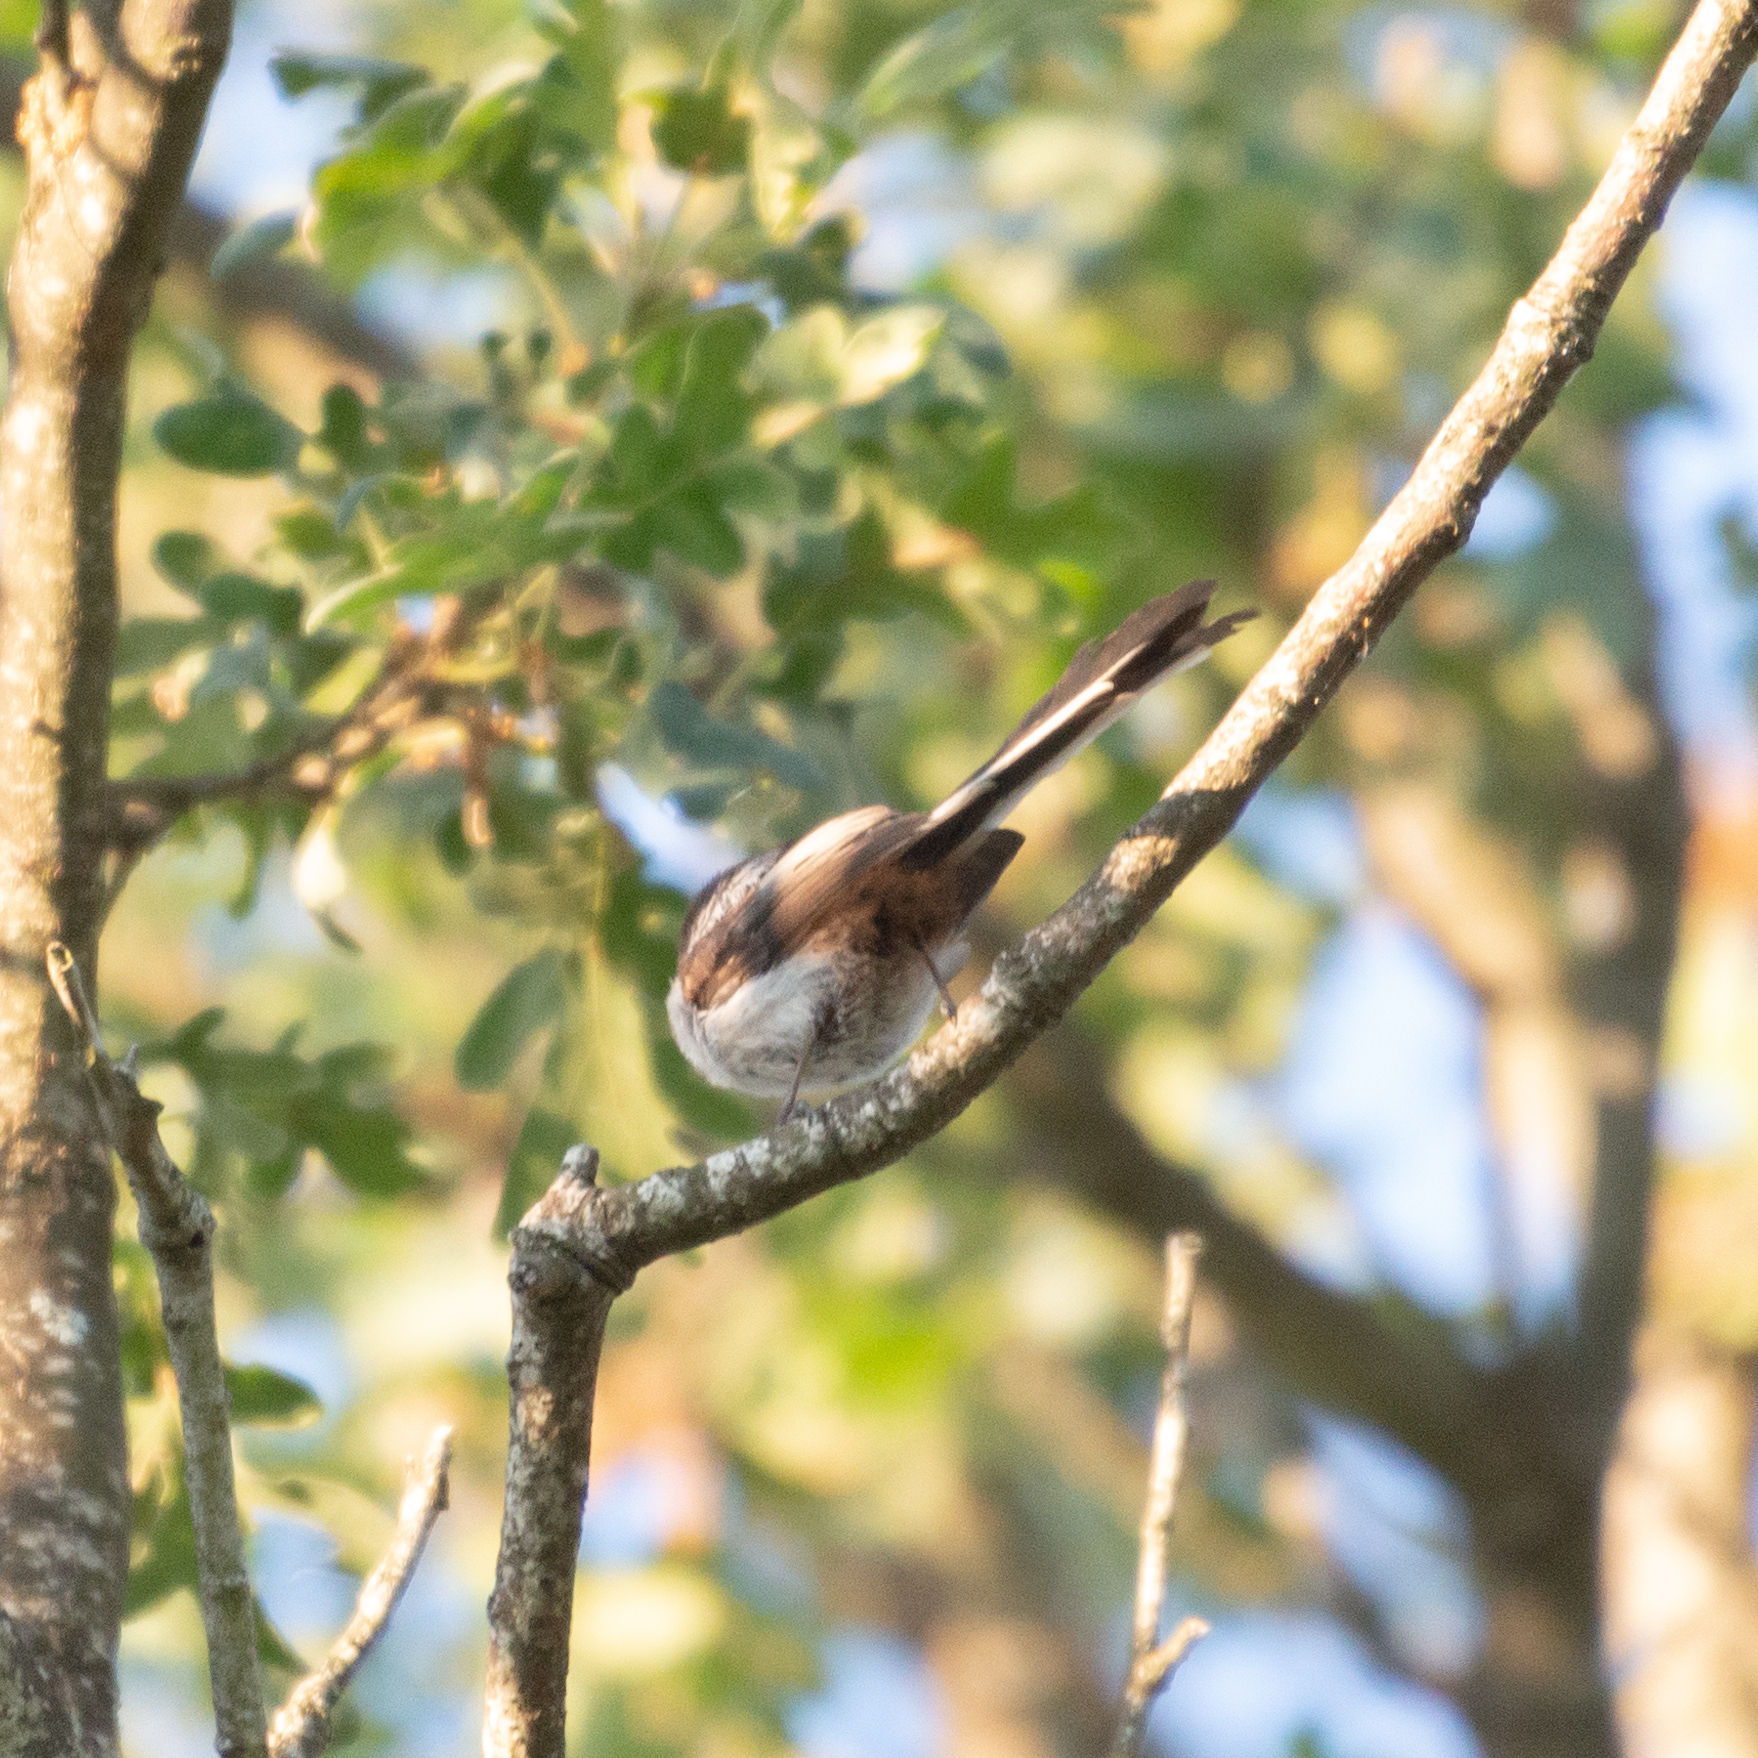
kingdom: Animalia
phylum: Chordata
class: Aves
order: Passeriformes
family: Aegithalidae
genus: Aegithalos
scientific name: Aegithalos caudatus
